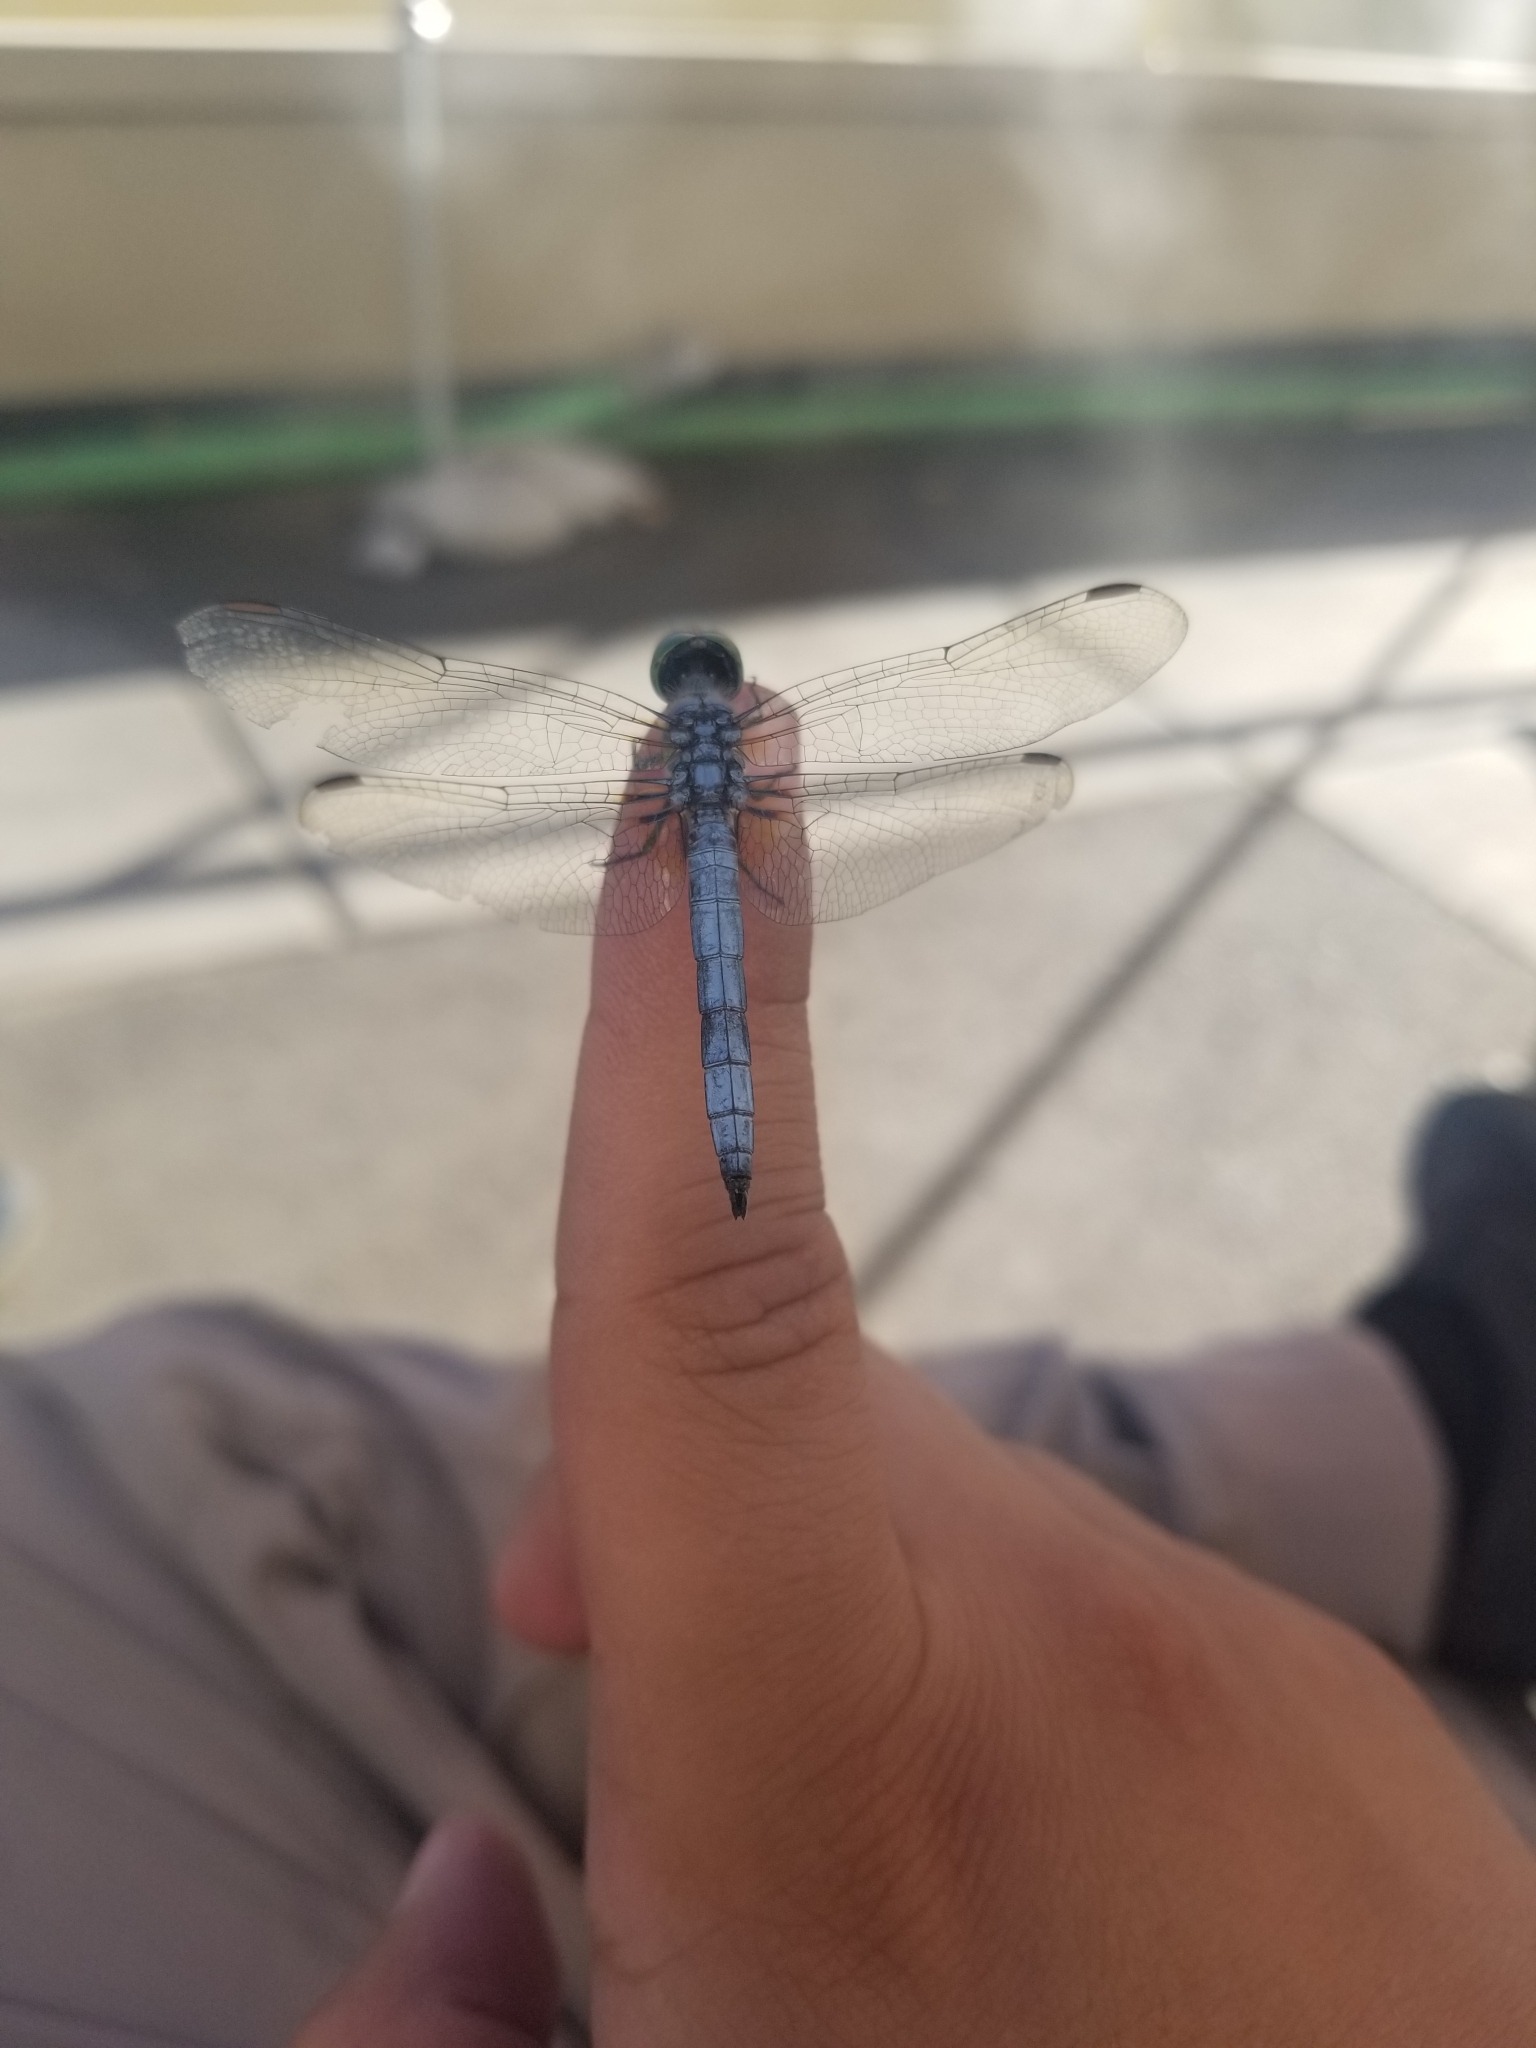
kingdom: Animalia
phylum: Arthropoda
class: Insecta
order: Odonata
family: Libellulidae
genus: Pachydiplax
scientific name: Pachydiplax longipennis
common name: Blue dasher
